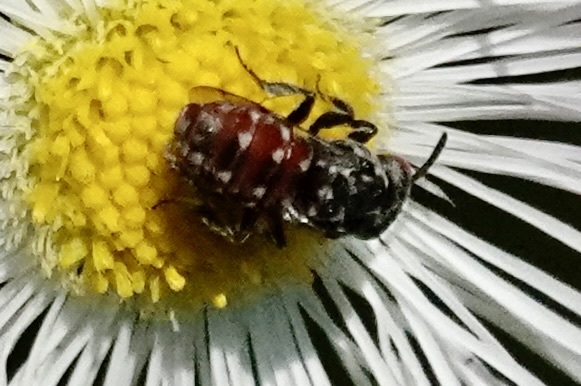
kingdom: Animalia
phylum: Arthropoda
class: Insecta
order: Hymenoptera
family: Apidae
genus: Holcopasites
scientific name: Holcopasites calliopsidis
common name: Calliopsis cuckoo nomad bee
